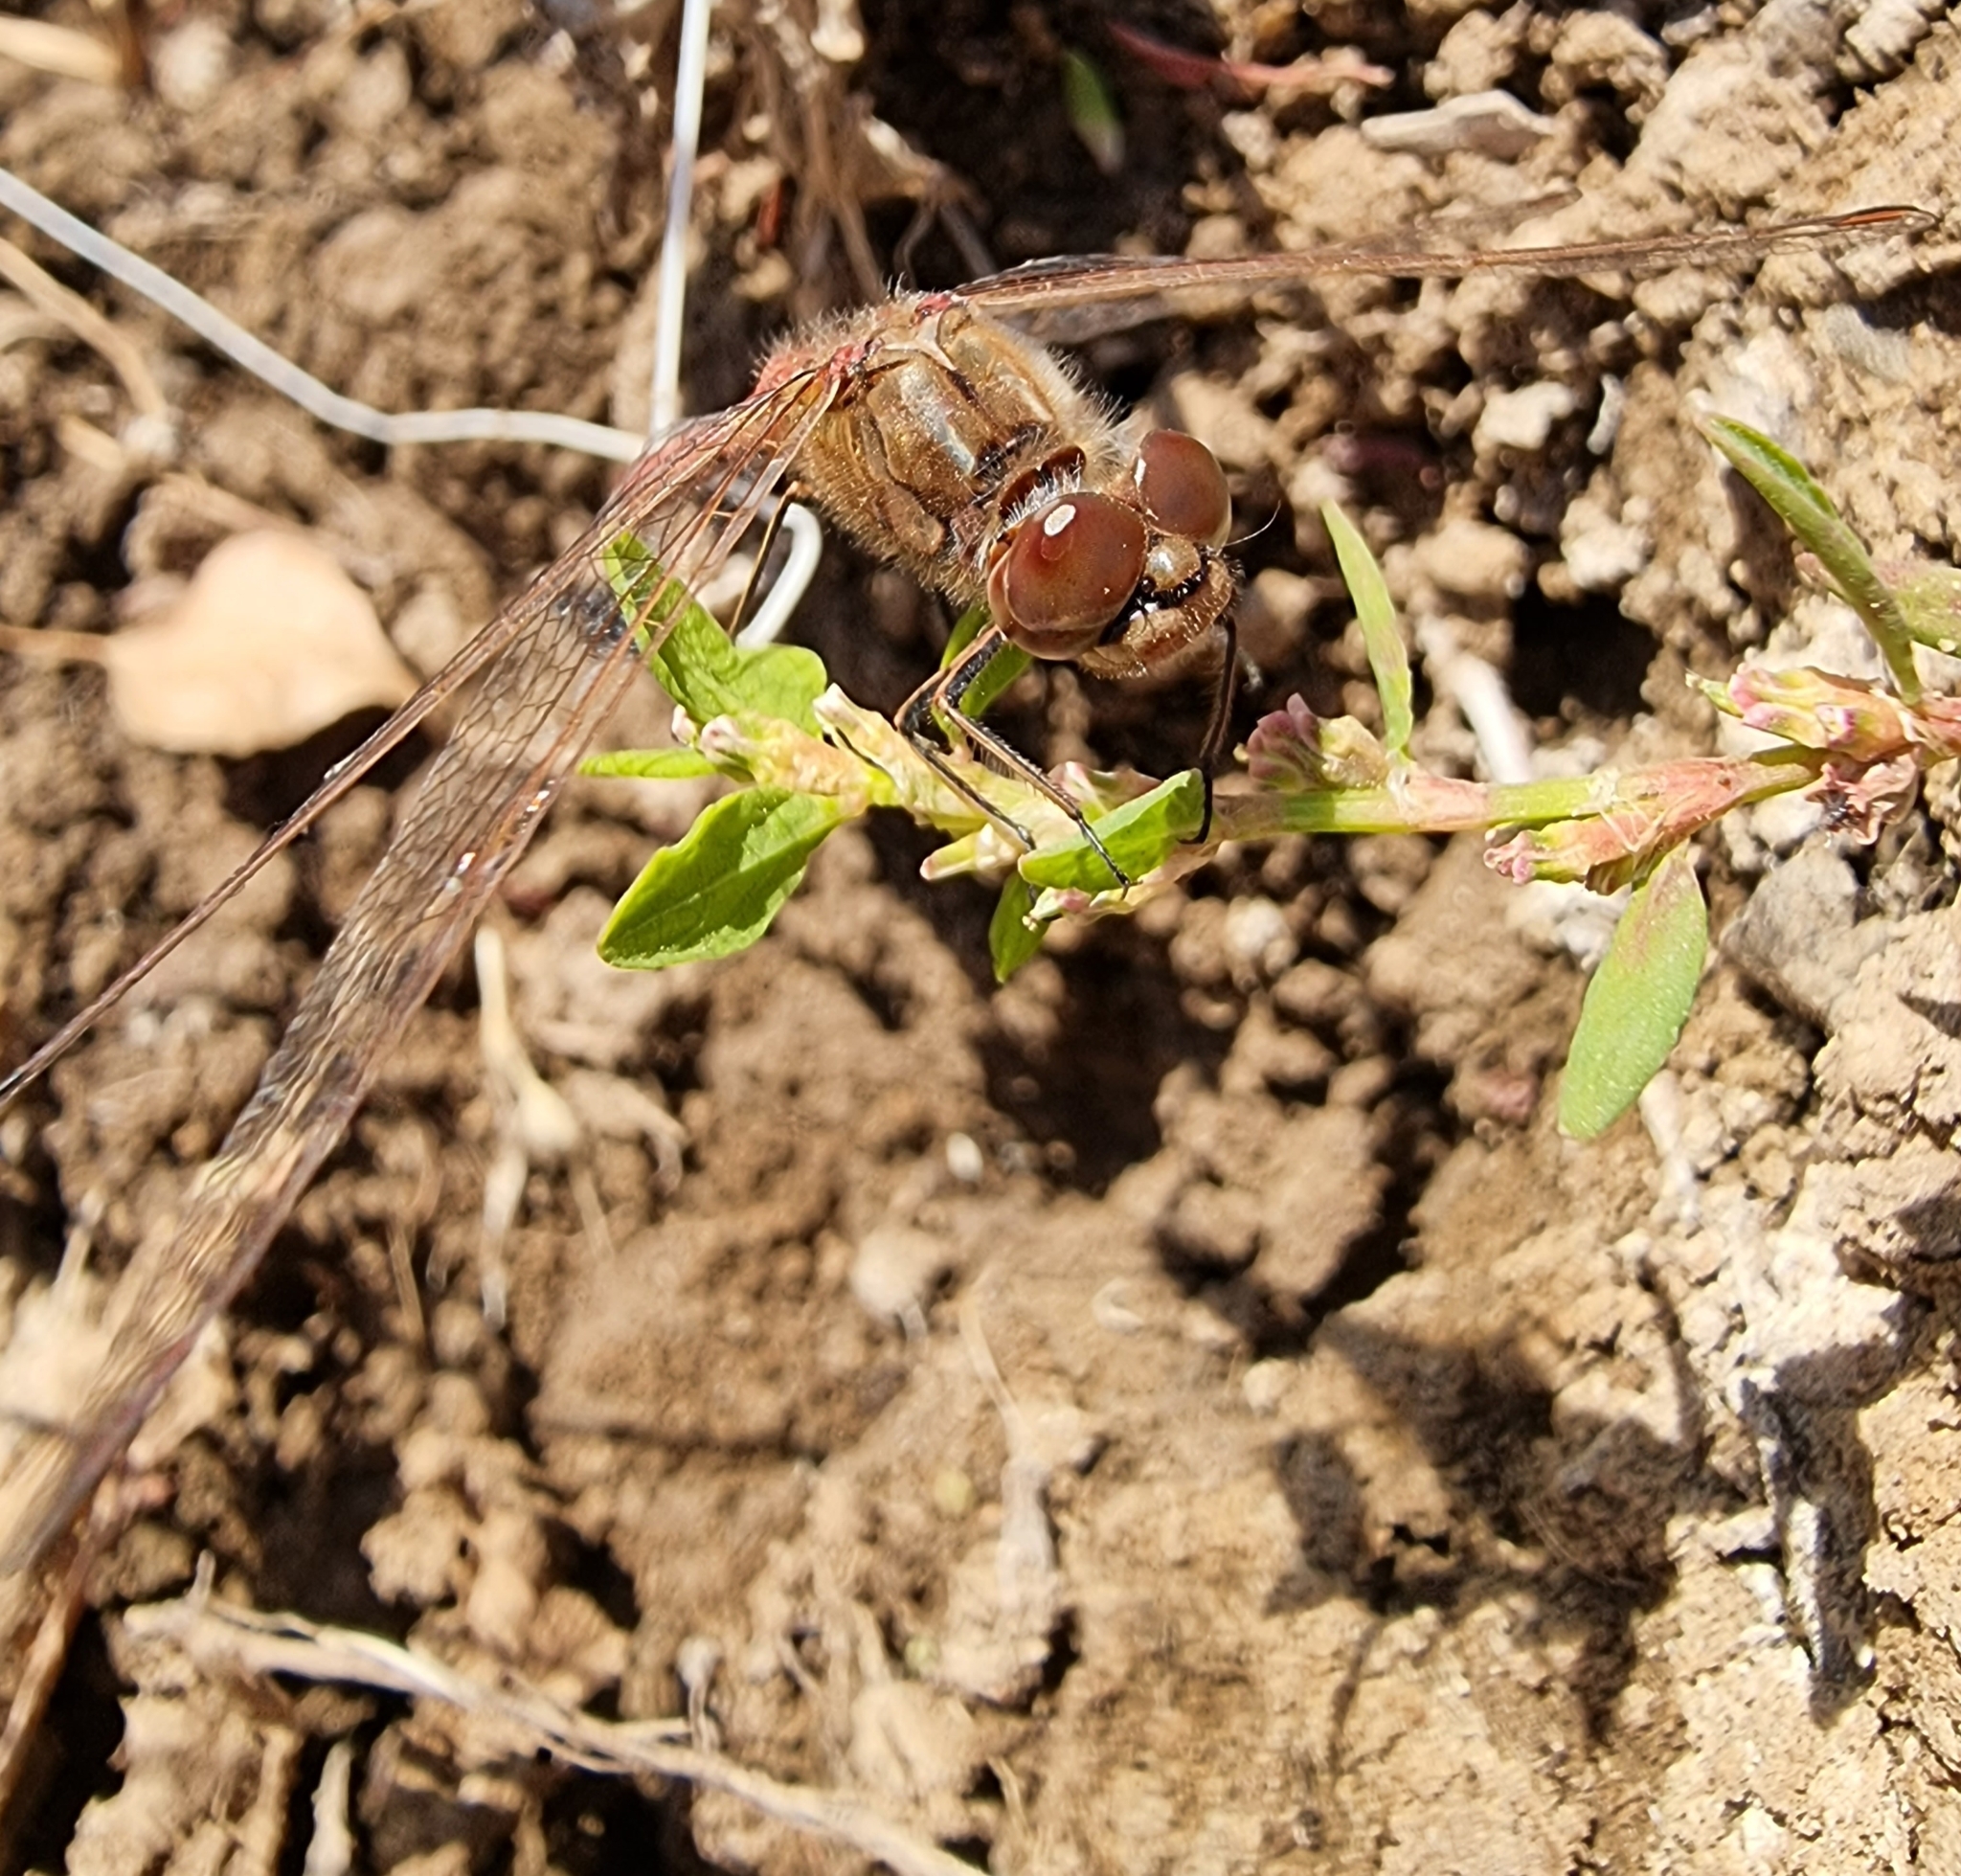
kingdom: Animalia
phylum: Arthropoda
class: Insecta
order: Odonata
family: Libellulidae
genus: Sympetrum
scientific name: Sympetrum vulgatum
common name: Vagrant darter
